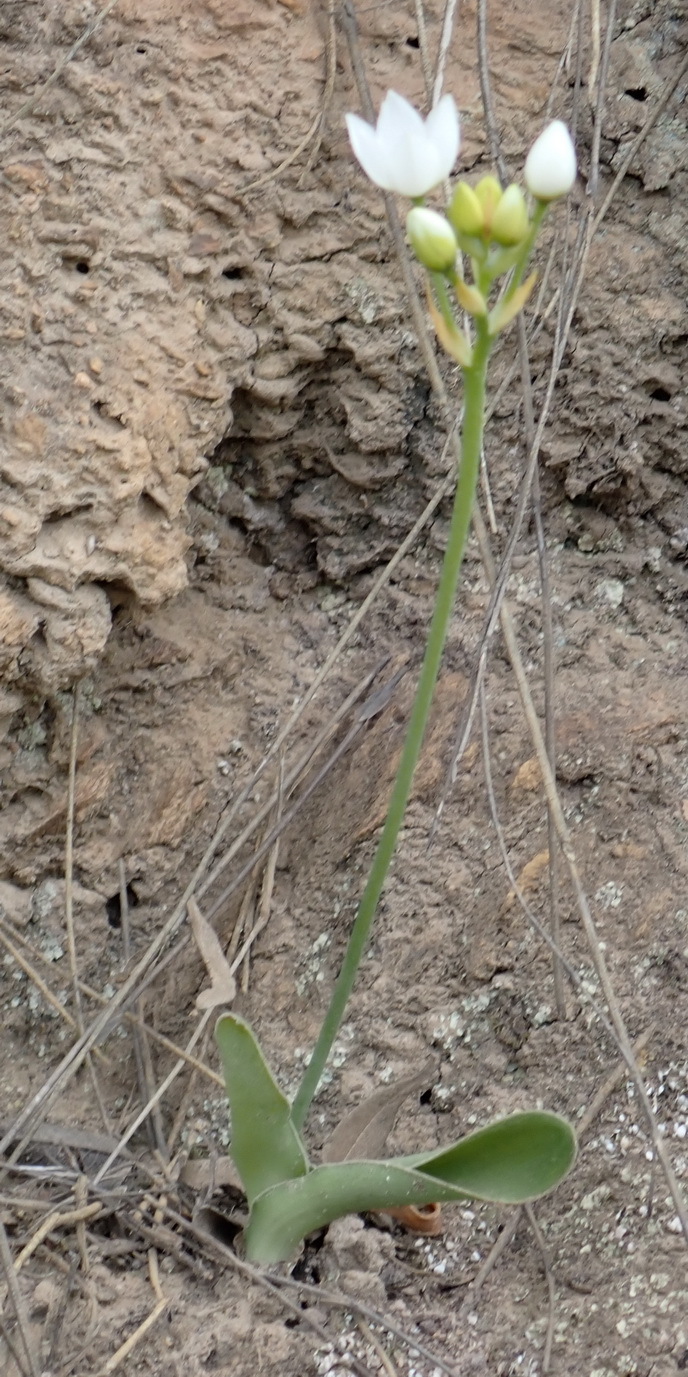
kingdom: Plantae
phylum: Tracheophyta
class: Liliopsida
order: Asparagales
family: Asparagaceae
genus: Ornithogalum
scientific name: Ornithogalum dubium
